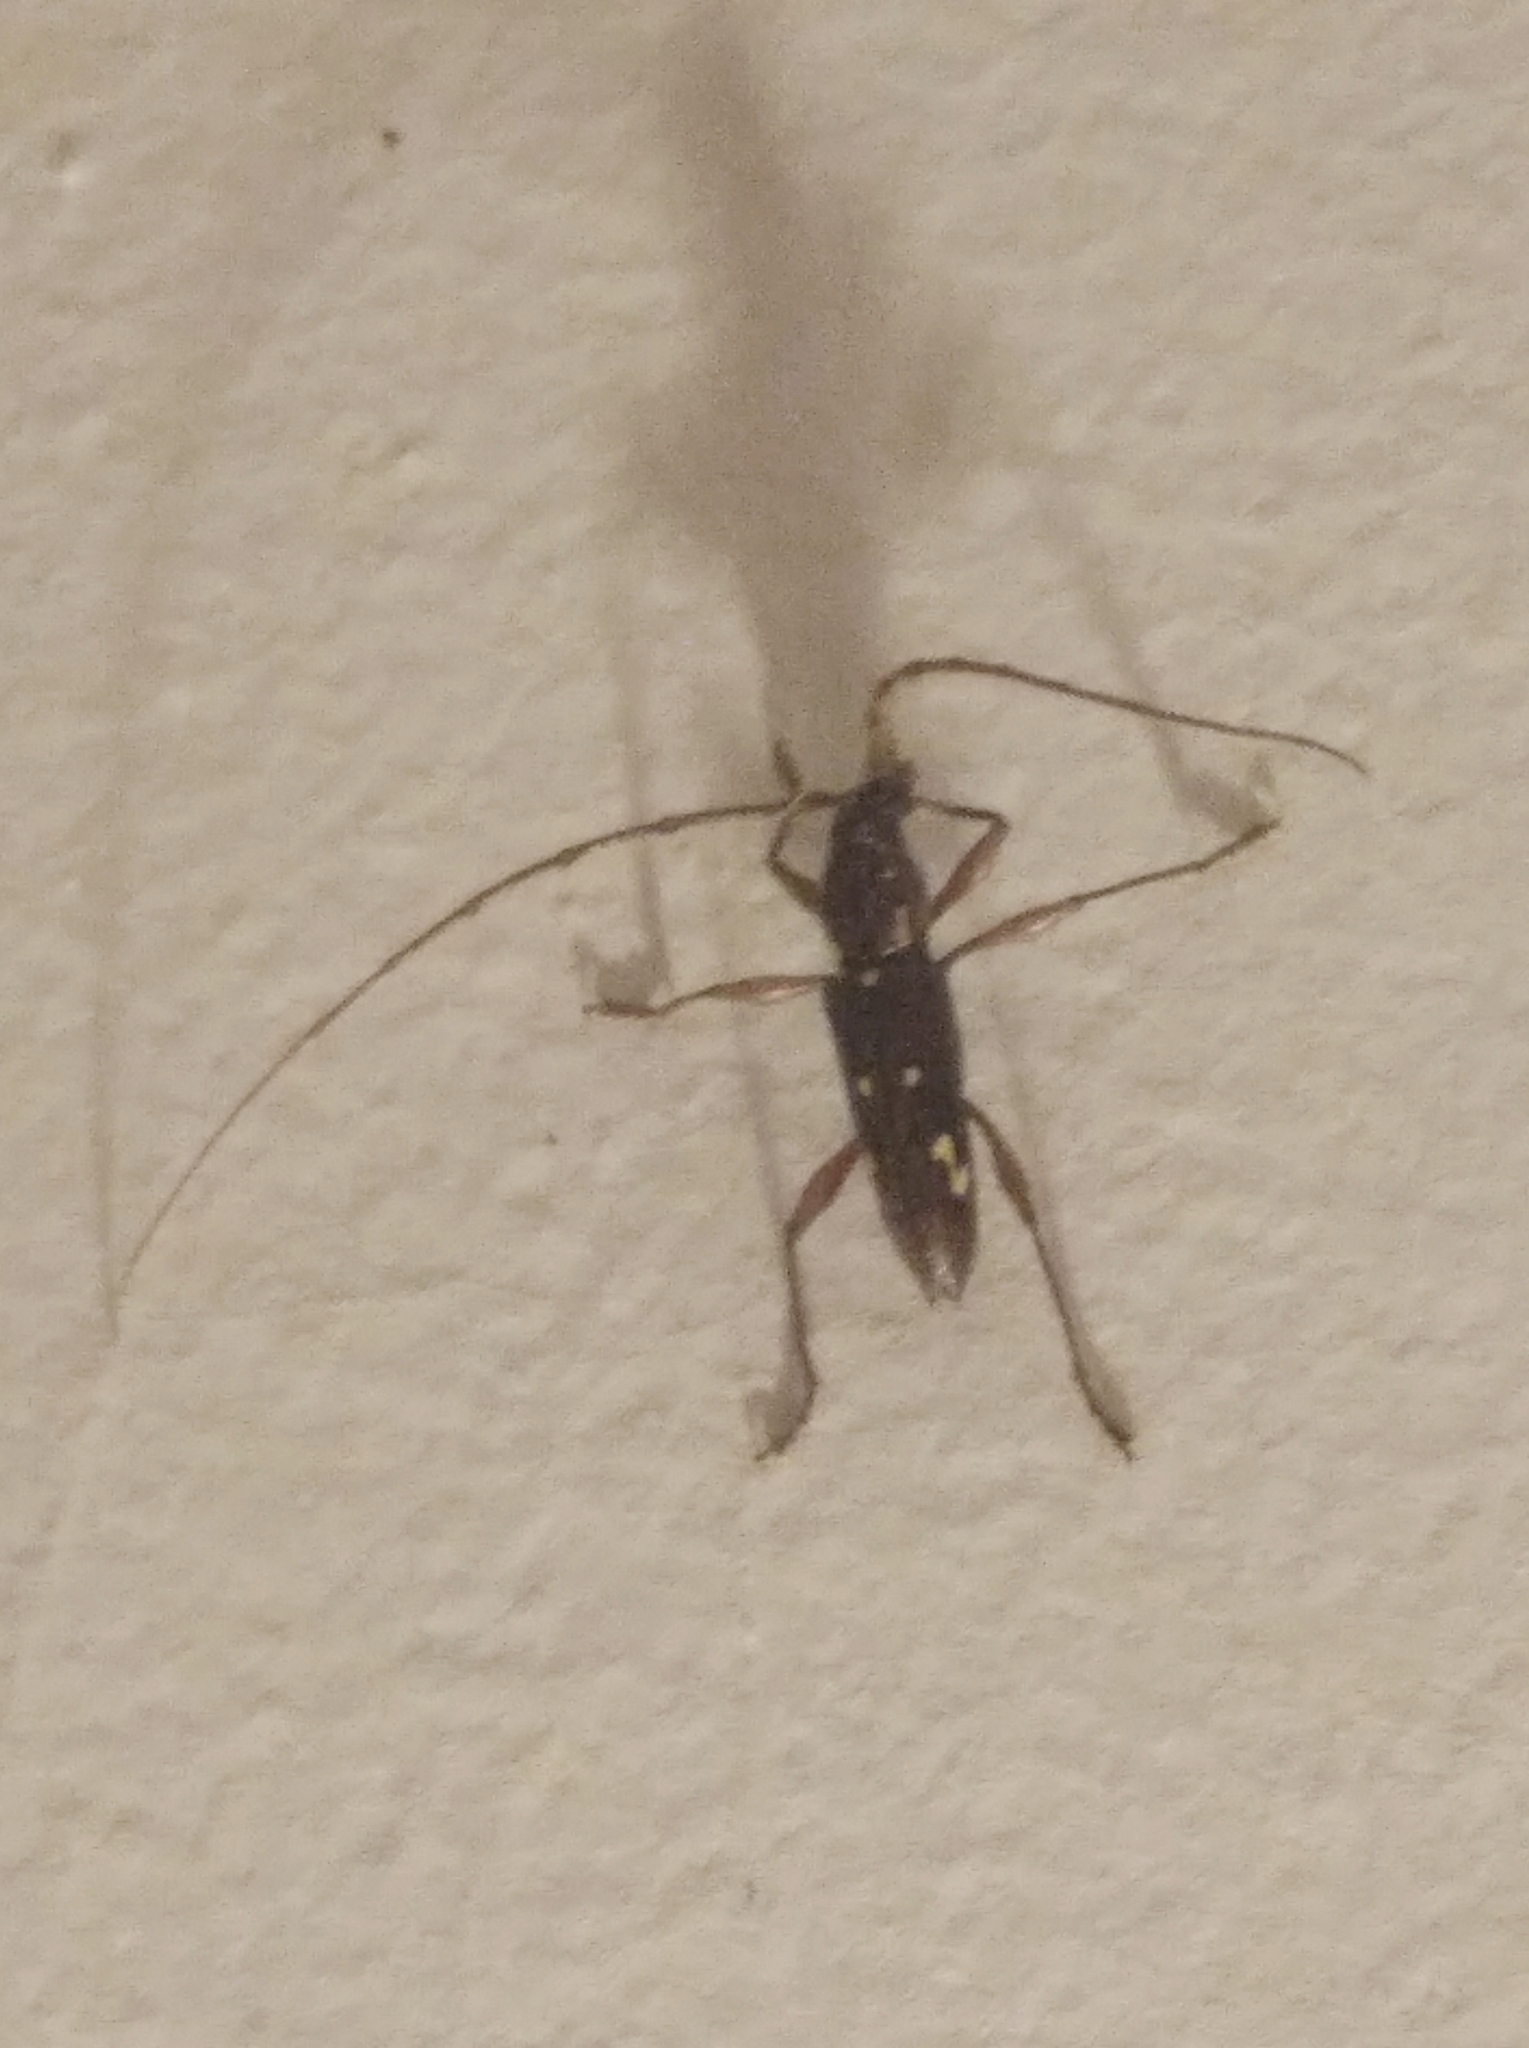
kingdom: Animalia
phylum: Arthropoda
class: Insecta
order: Coleoptera
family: Cerambycidae
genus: Ambonus
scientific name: Ambonus interrogationis
